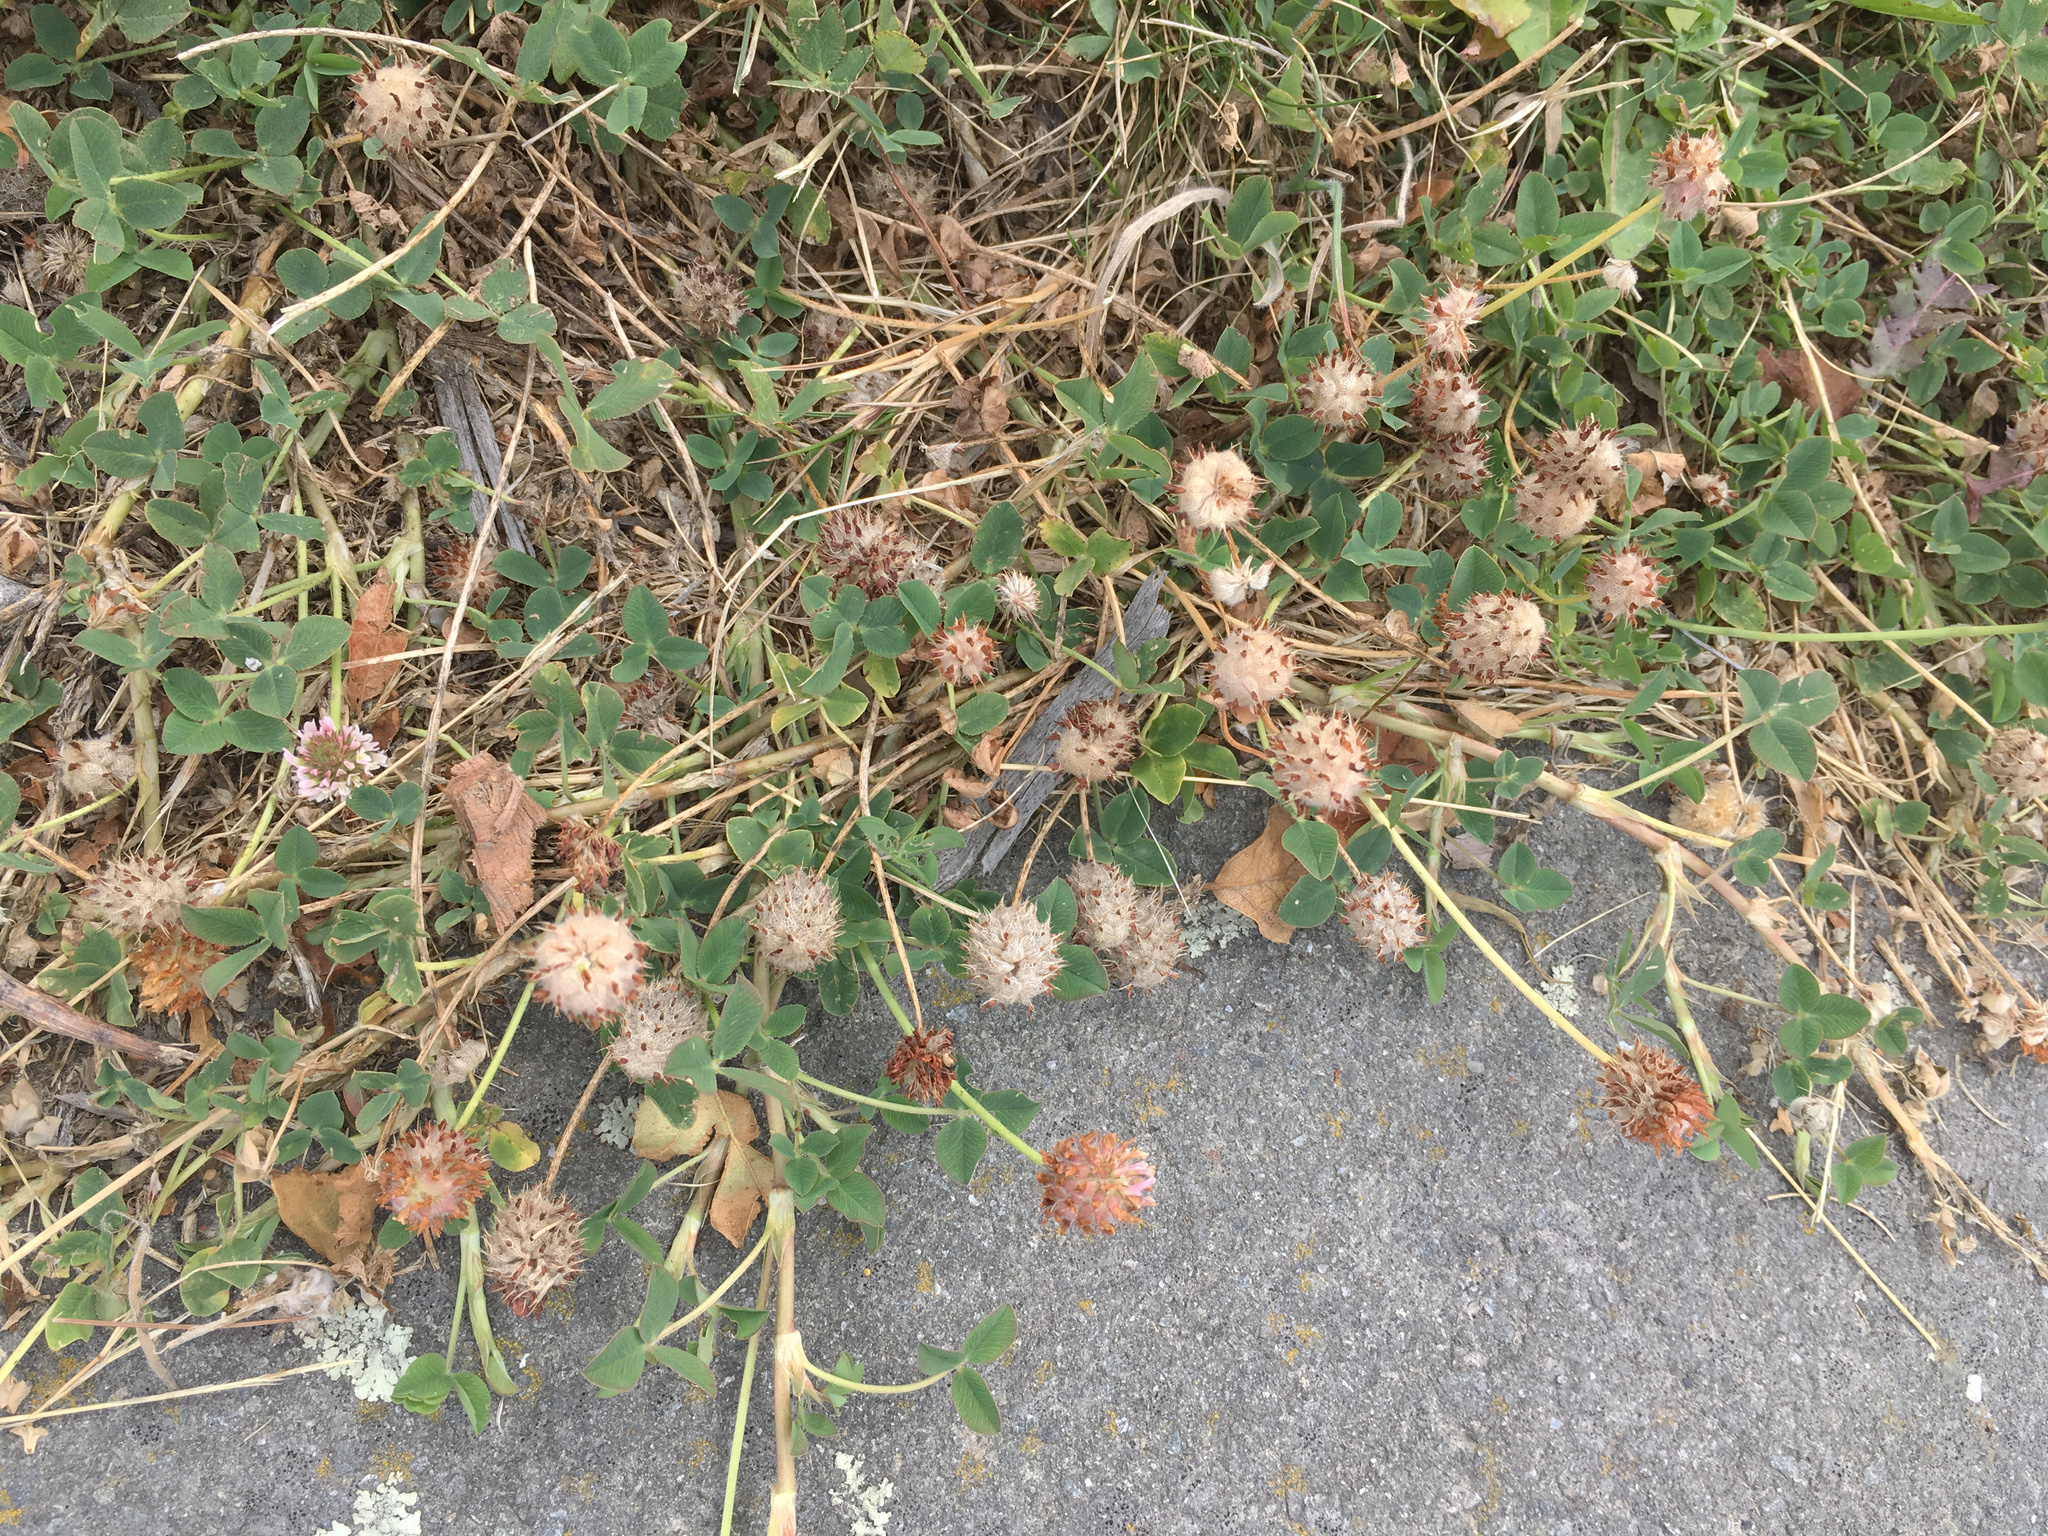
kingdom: Plantae
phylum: Tracheophyta
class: Magnoliopsida
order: Fabales
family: Fabaceae
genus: Trifolium
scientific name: Trifolium fragiferum
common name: Strawberry clover
